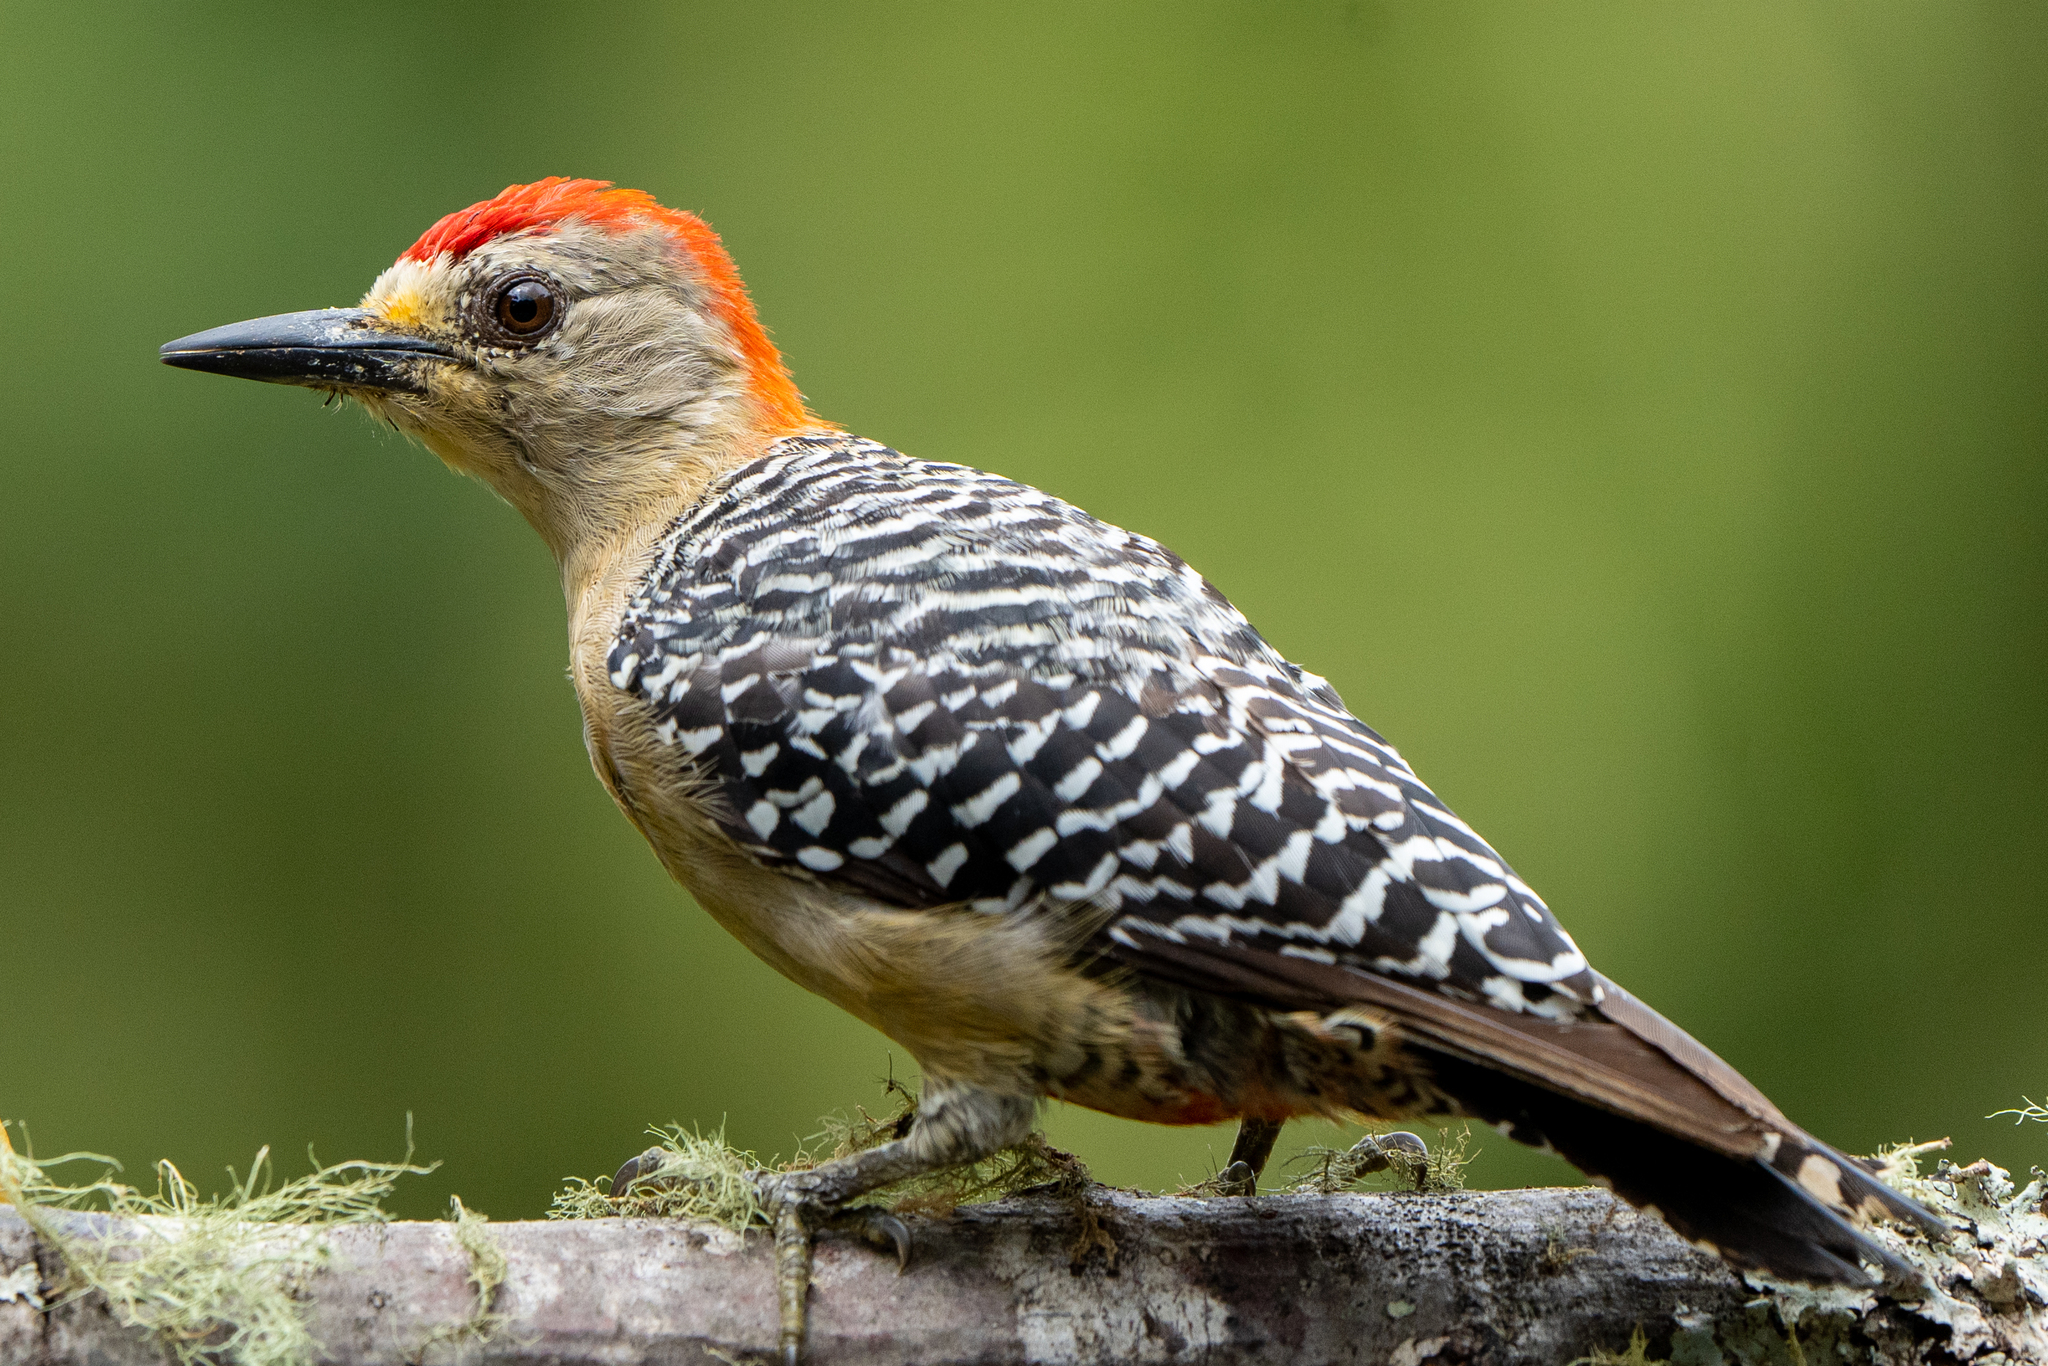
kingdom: Animalia
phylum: Chordata
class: Aves
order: Piciformes
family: Picidae
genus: Melanerpes
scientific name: Melanerpes rubricapillus
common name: Red-crowned woodpecker
